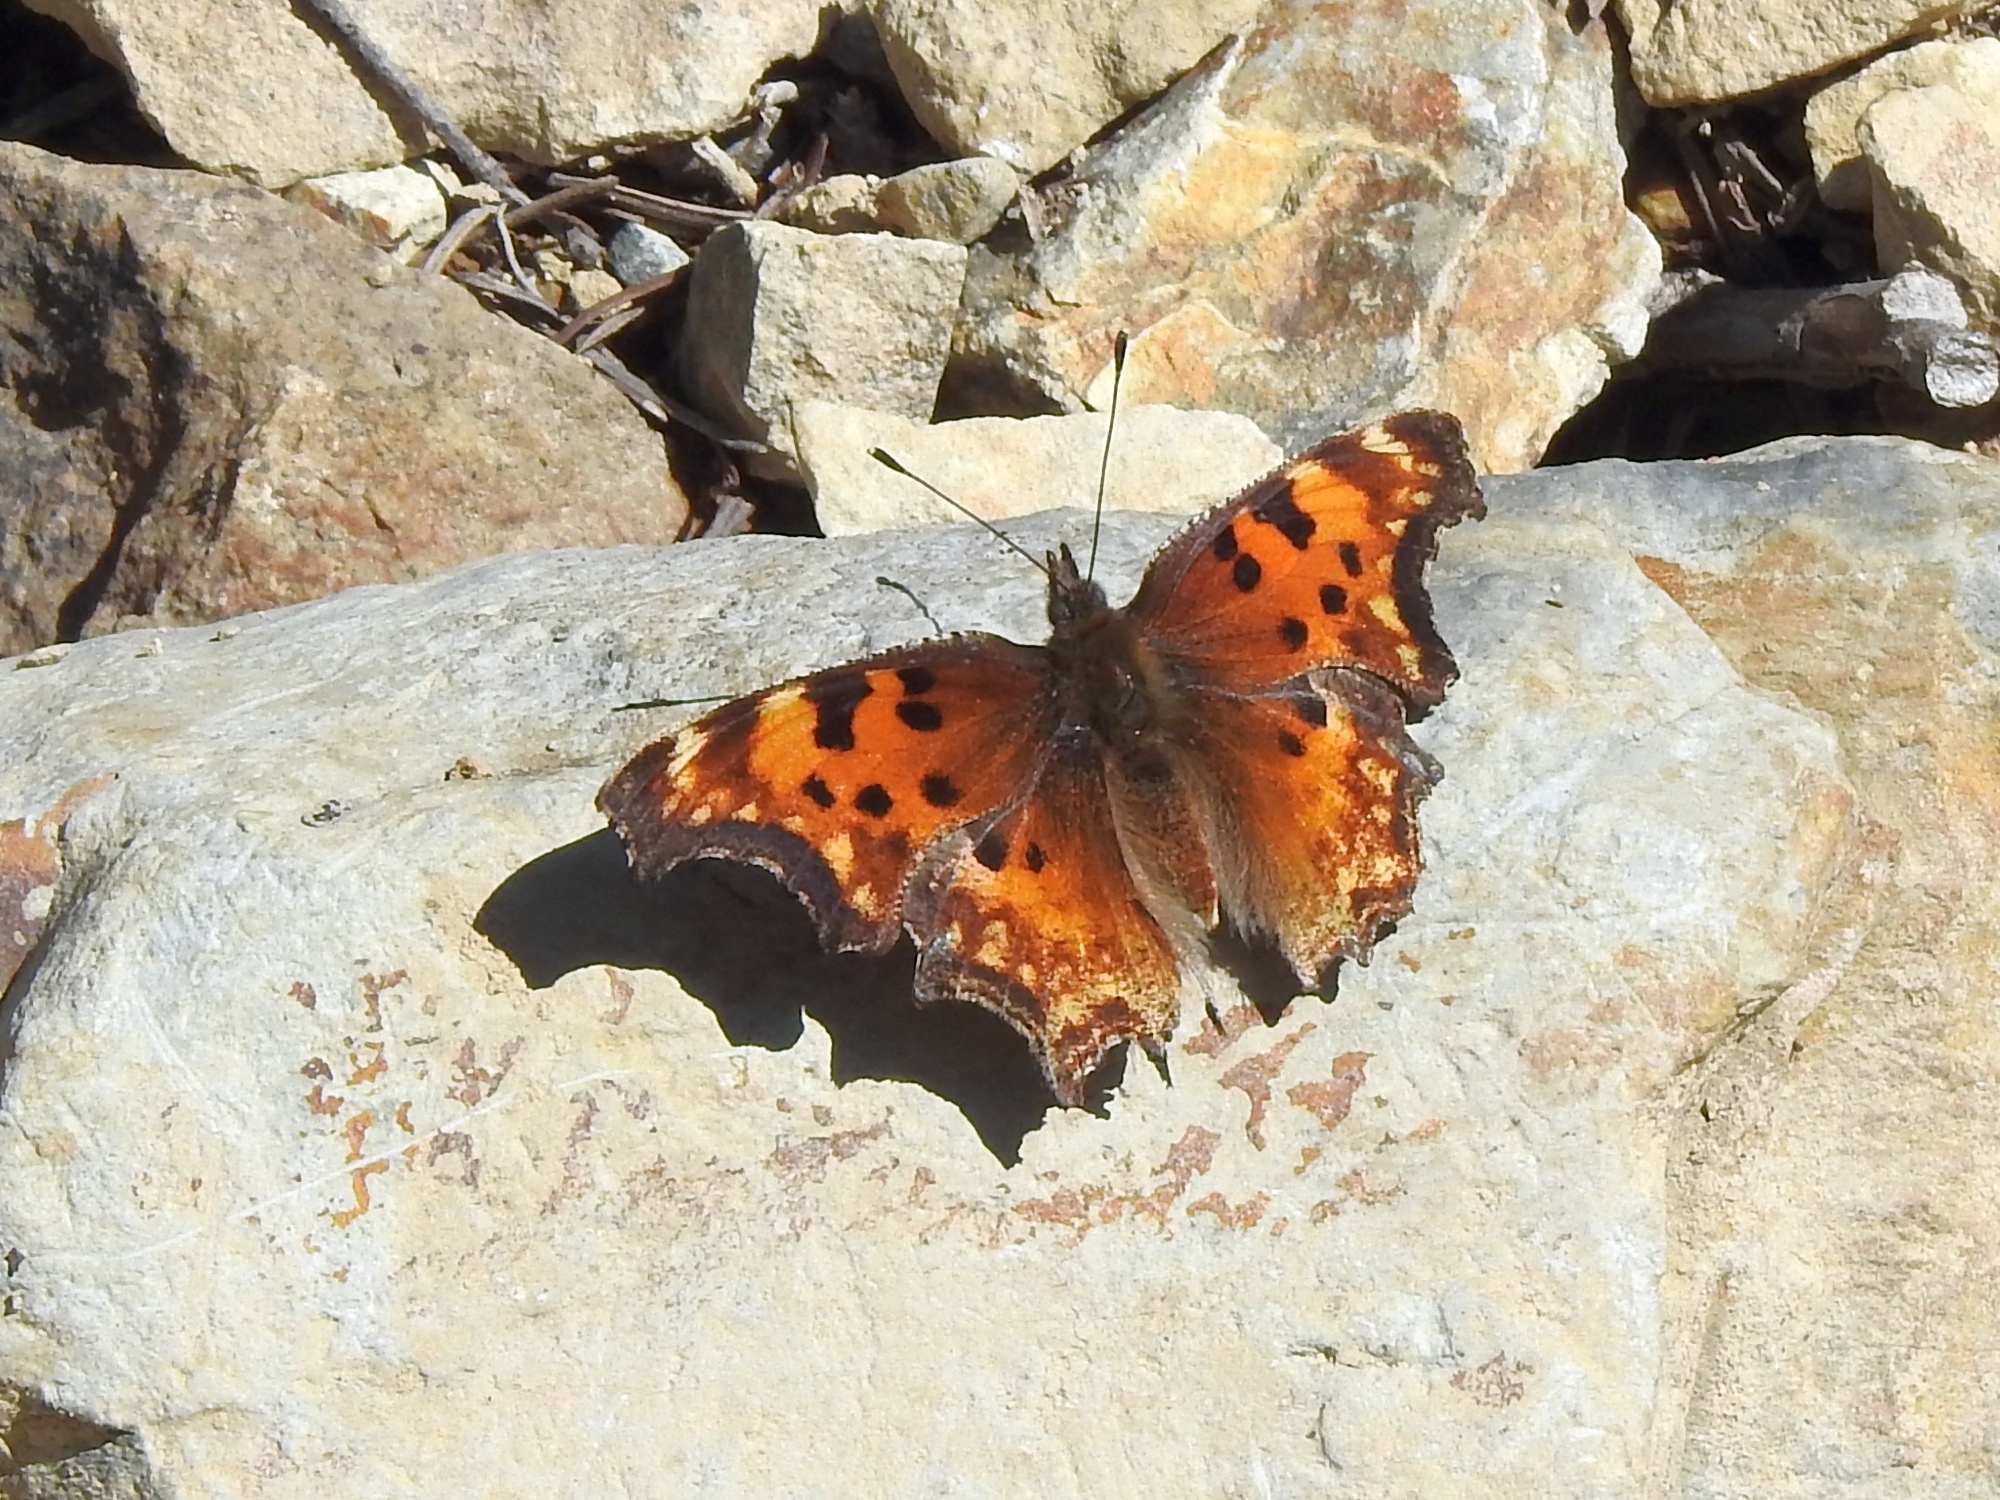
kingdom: Animalia
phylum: Arthropoda
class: Insecta
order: Lepidoptera
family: Nymphalidae
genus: Polygonia
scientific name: Polygonia gracilis
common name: Hoary comma
